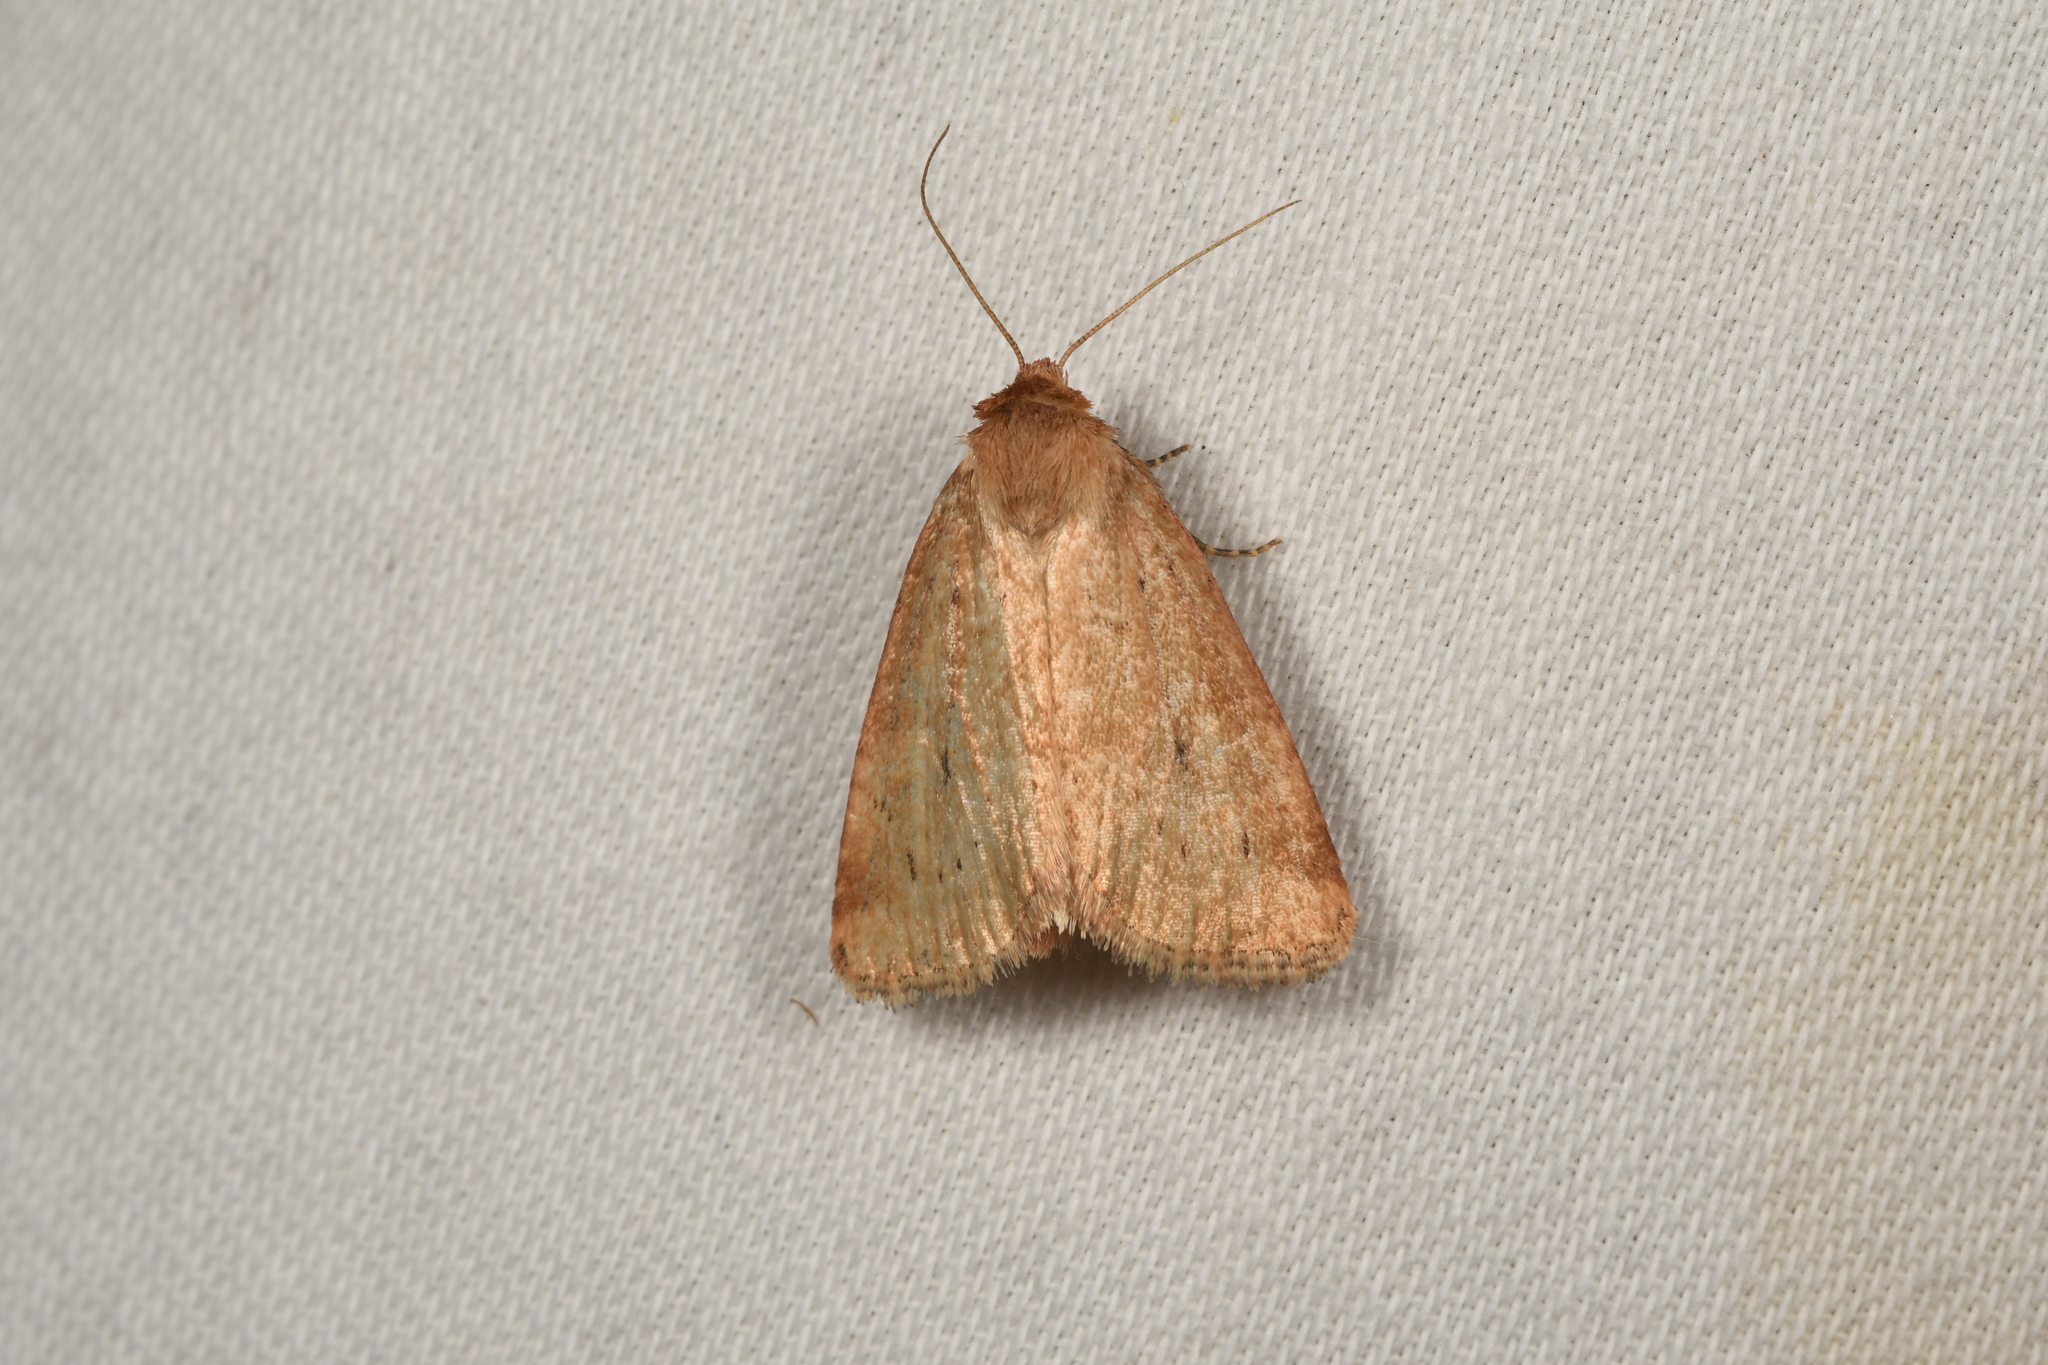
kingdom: Animalia
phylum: Arthropoda
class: Insecta
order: Lepidoptera
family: Noctuidae
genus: Photedes
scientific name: Photedes minima
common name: Small dotted buff
